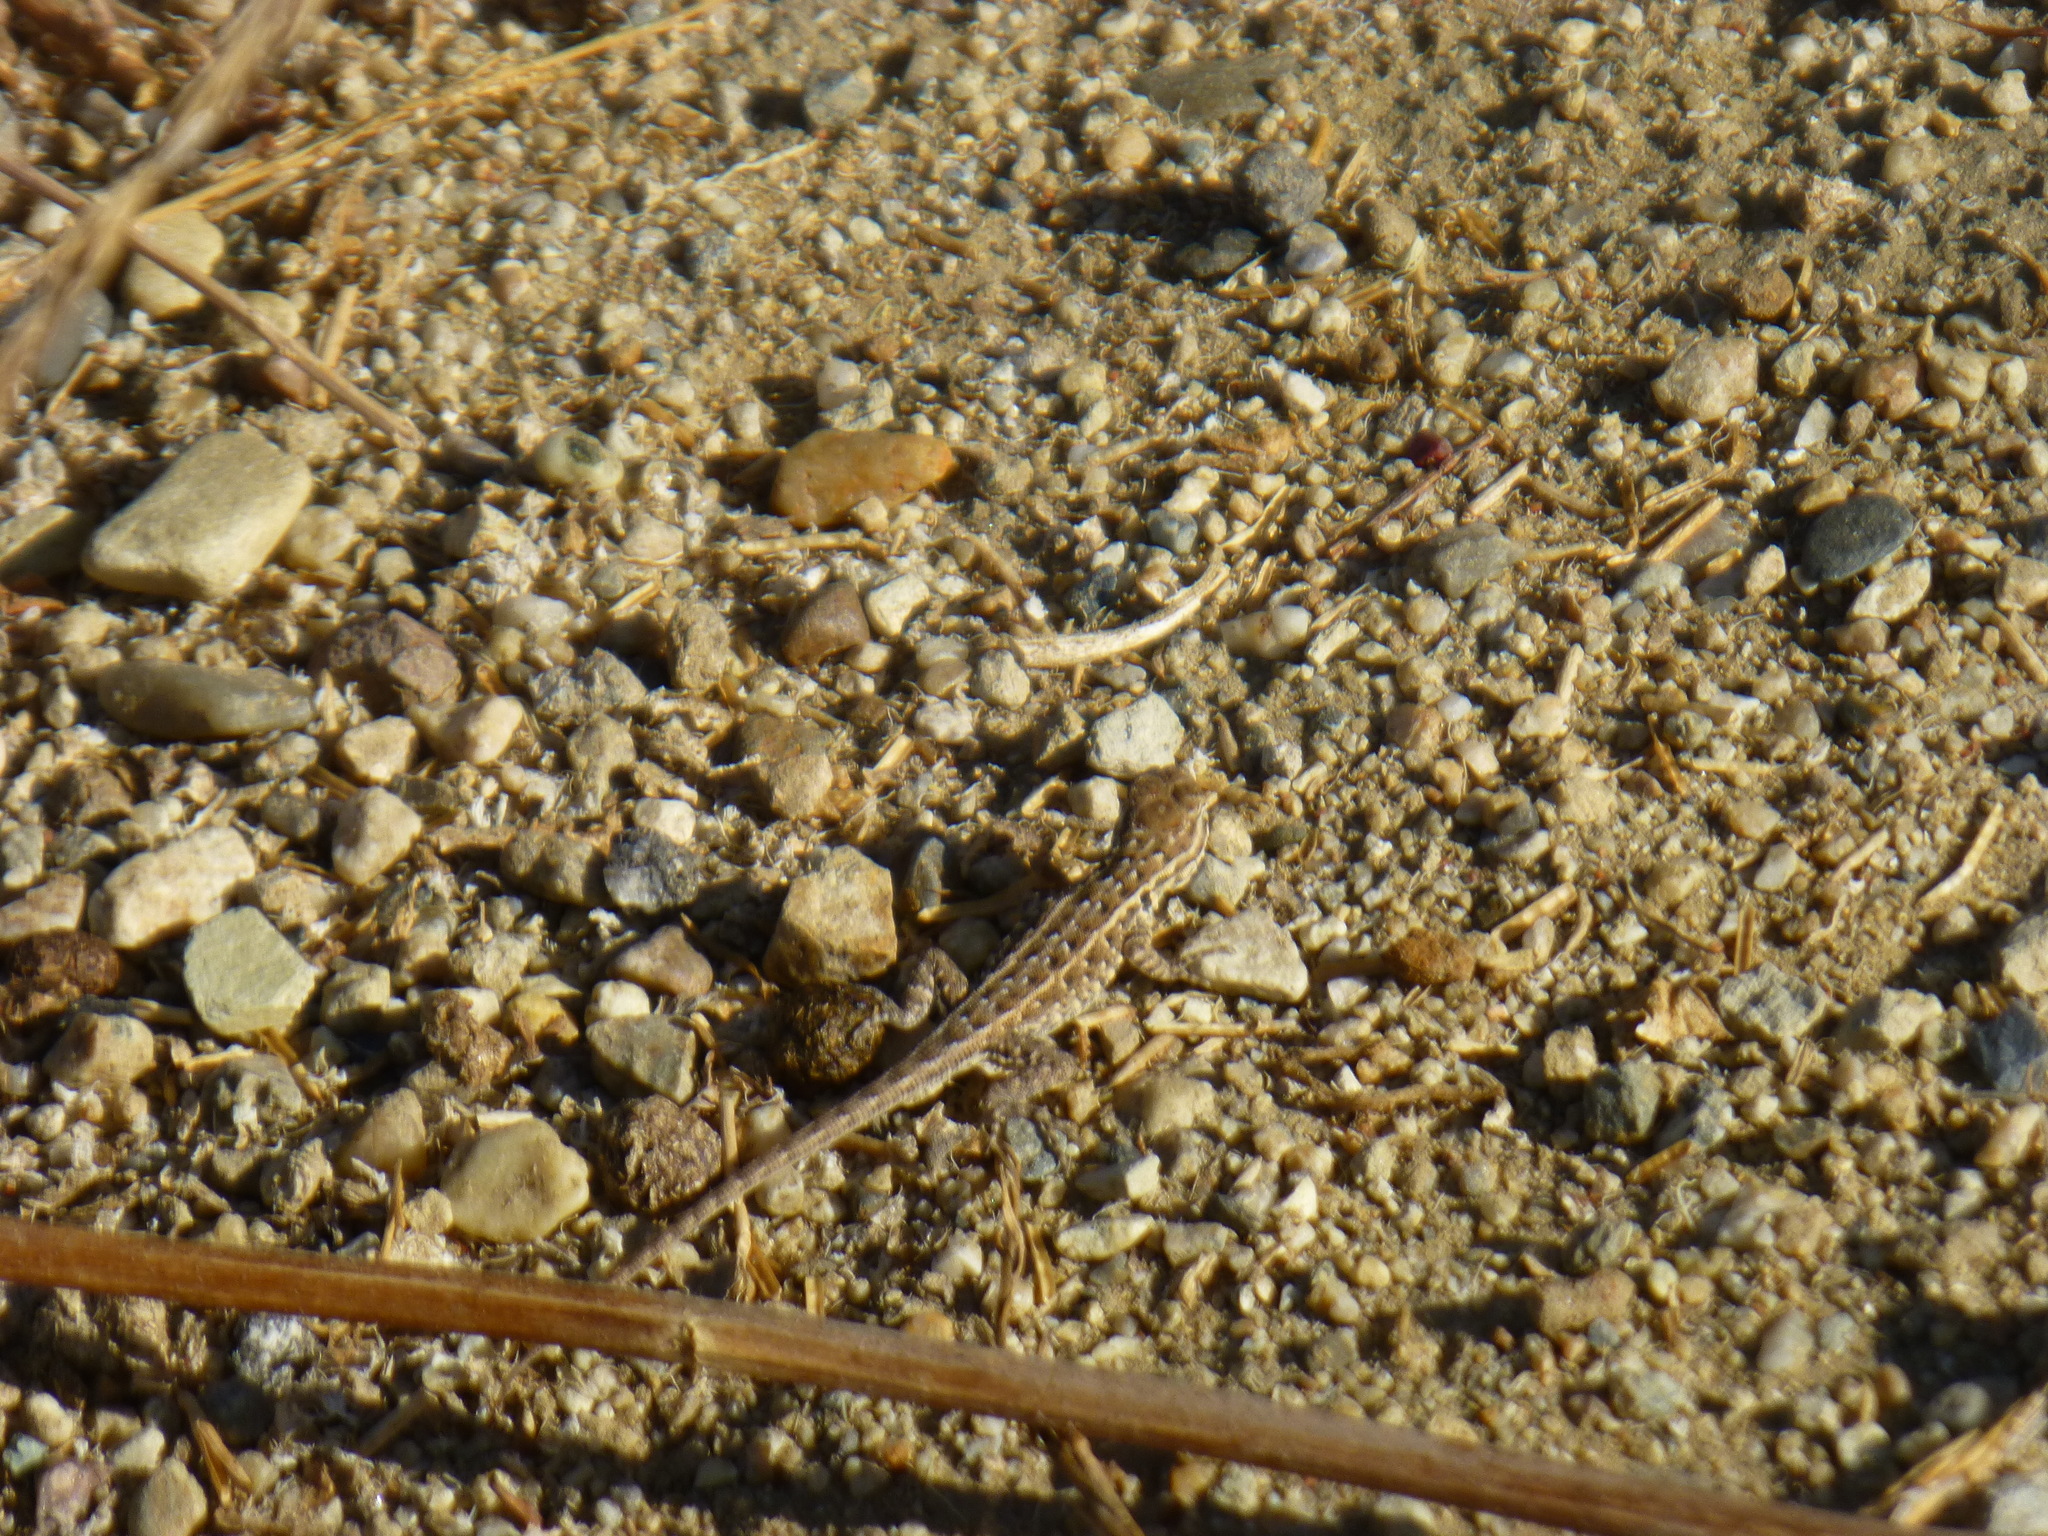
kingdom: Animalia
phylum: Chordata
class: Squamata
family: Phrynosomatidae
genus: Uta
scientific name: Uta stansburiana
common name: Side-blotched lizard
